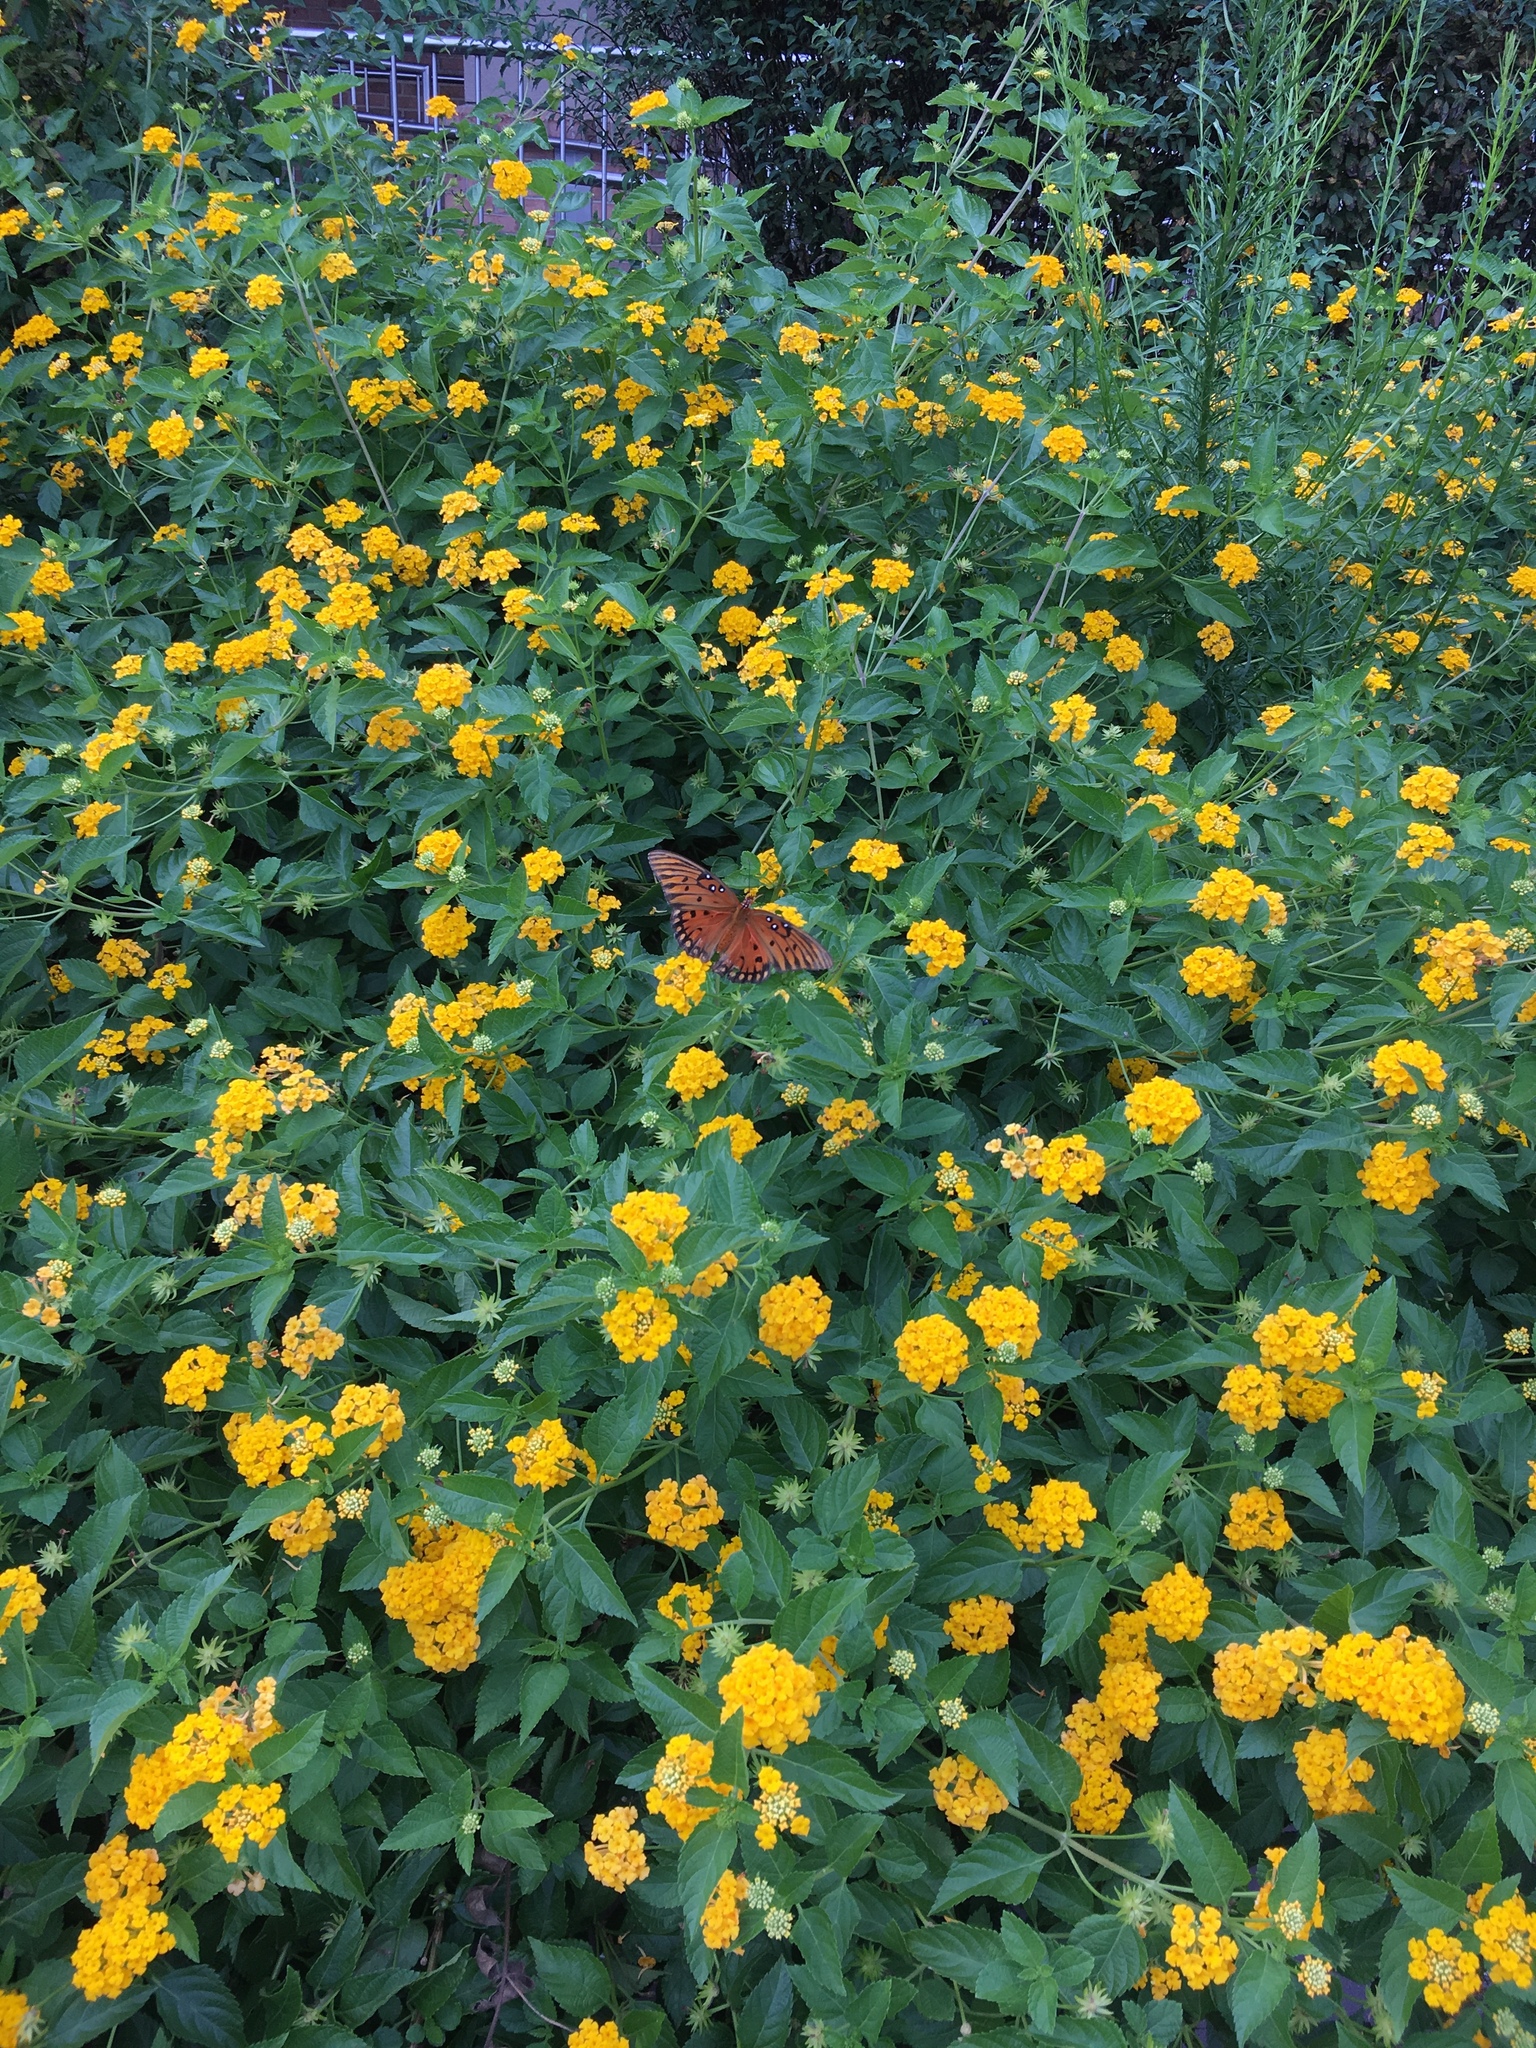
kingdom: Animalia
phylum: Arthropoda
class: Insecta
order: Lepidoptera
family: Nymphalidae
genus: Dione
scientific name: Dione vanillae
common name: Gulf fritillary
